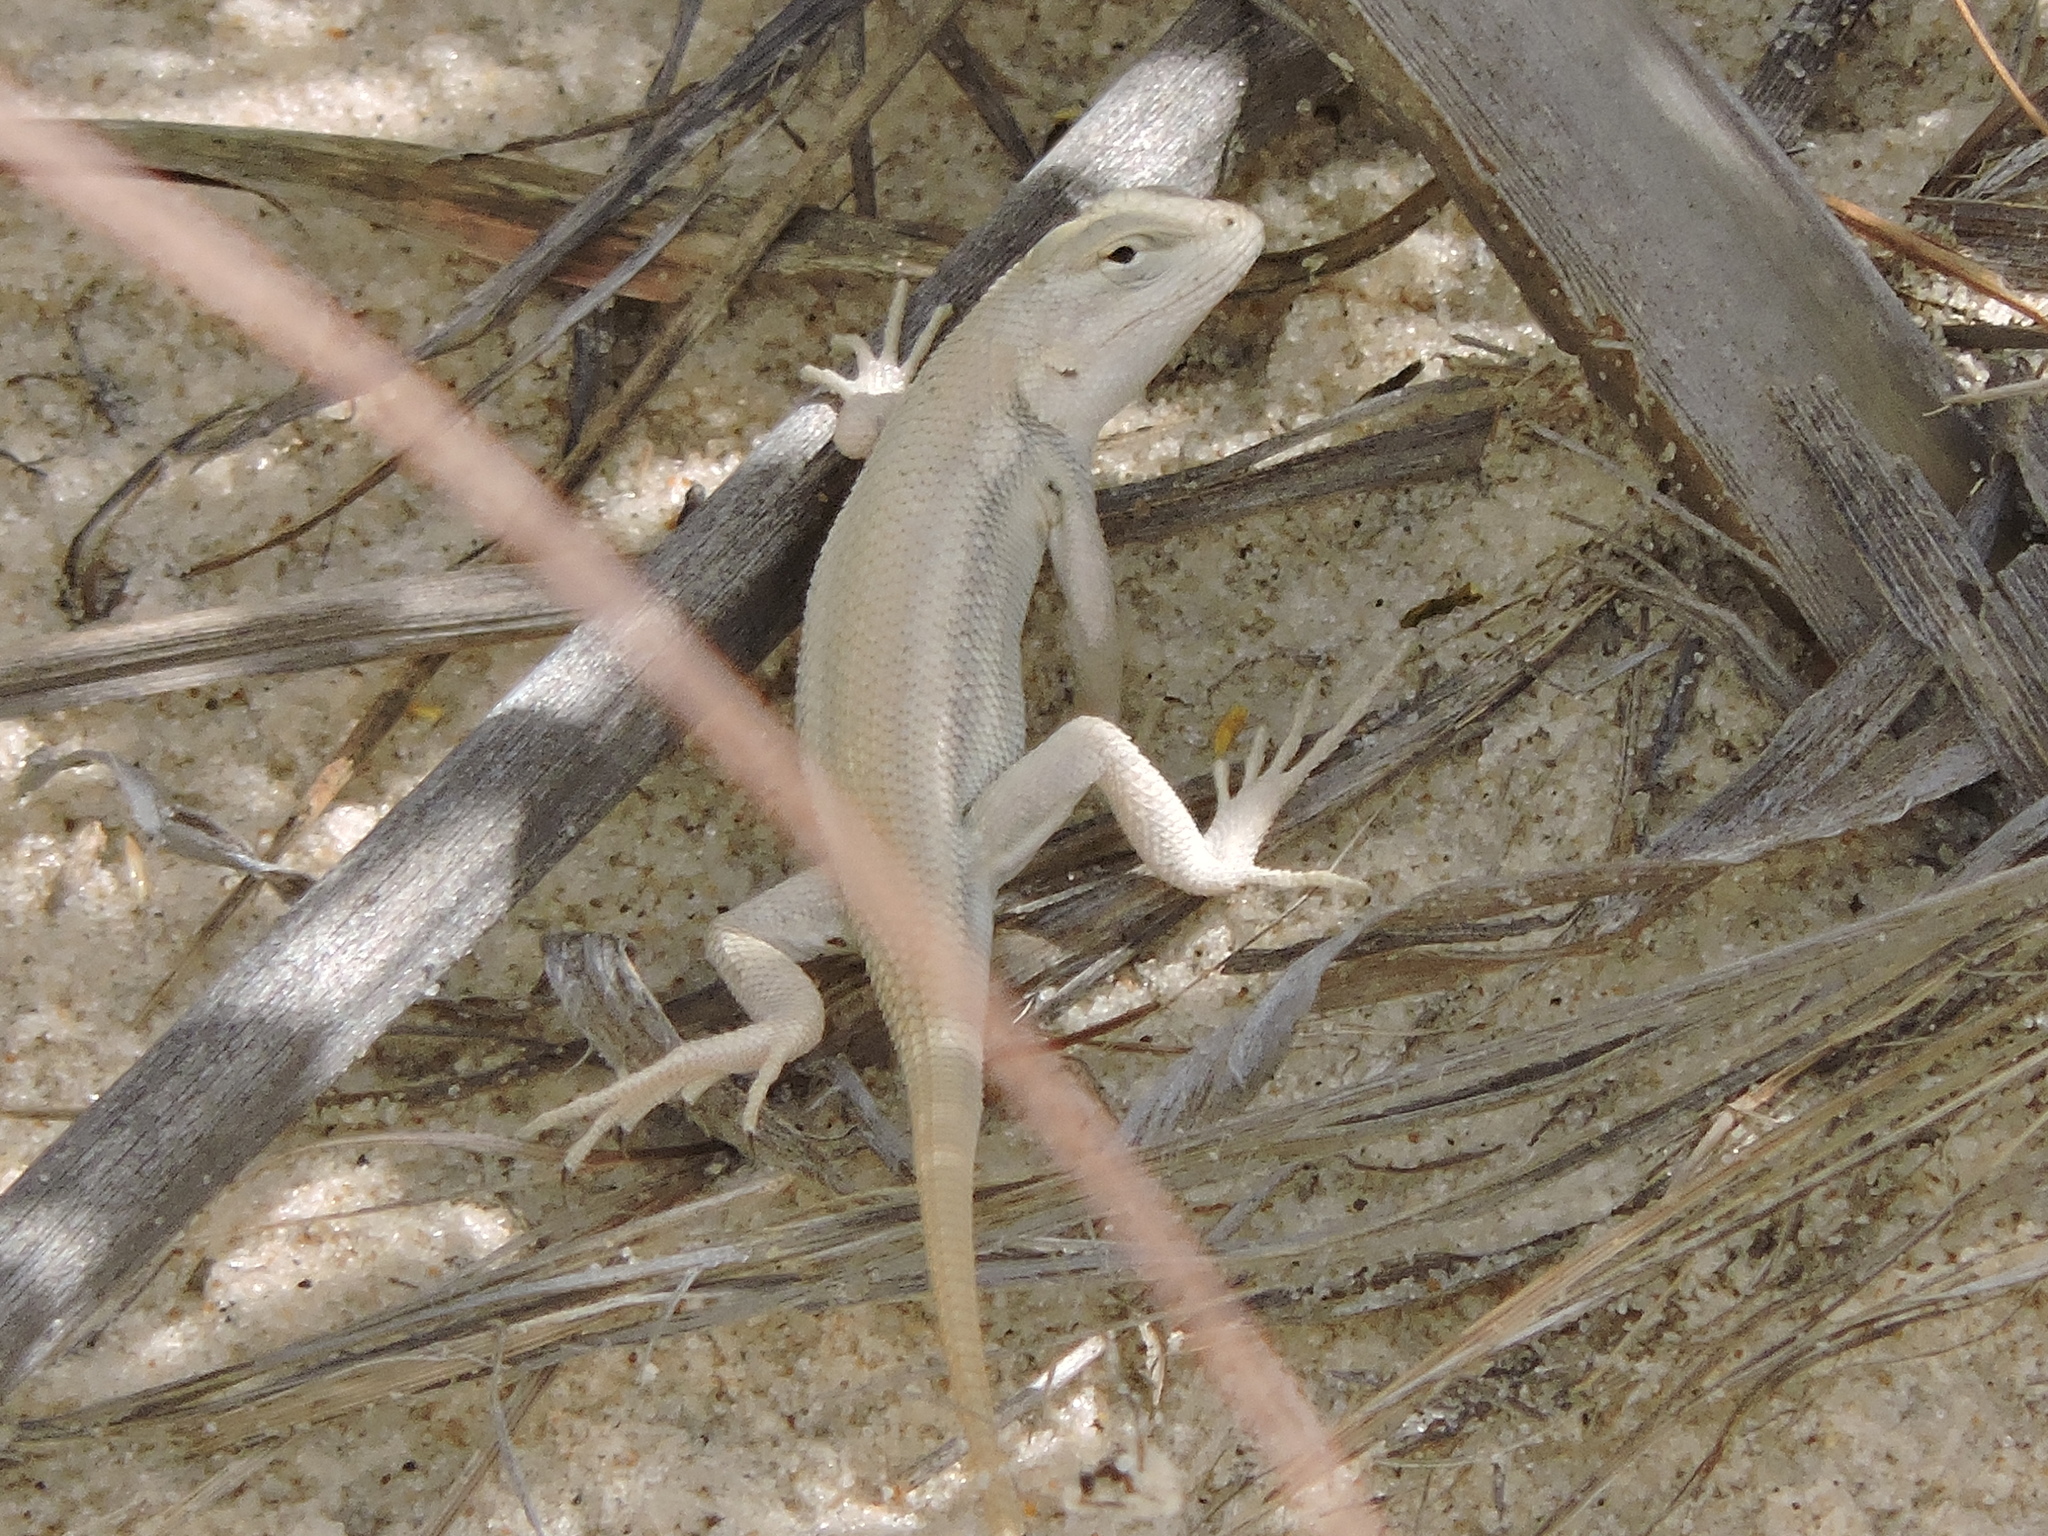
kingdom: Animalia
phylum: Chordata
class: Squamata
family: Phrynosomatidae
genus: Sceloporus
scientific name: Sceloporus arenicolus
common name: Dunes sagebrush lizard
